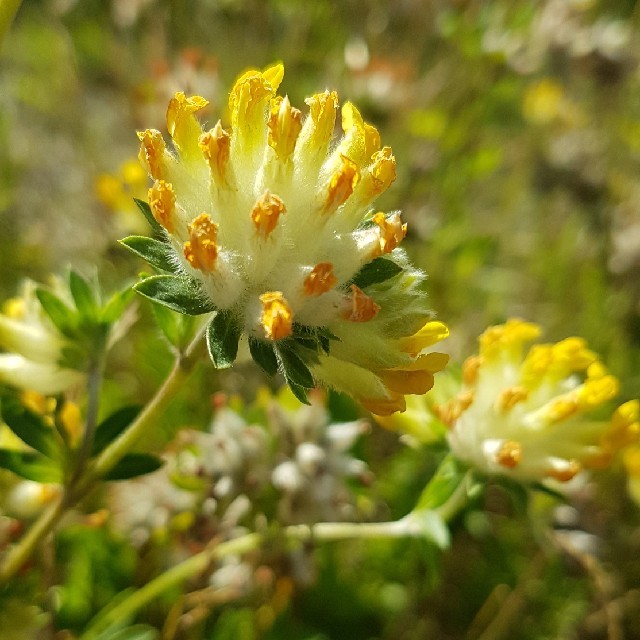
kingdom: Plantae
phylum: Tracheophyta
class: Magnoliopsida
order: Fabales
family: Fabaceae
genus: Anthyllis
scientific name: Anthyllis vulneraria
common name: Kidney vetch
